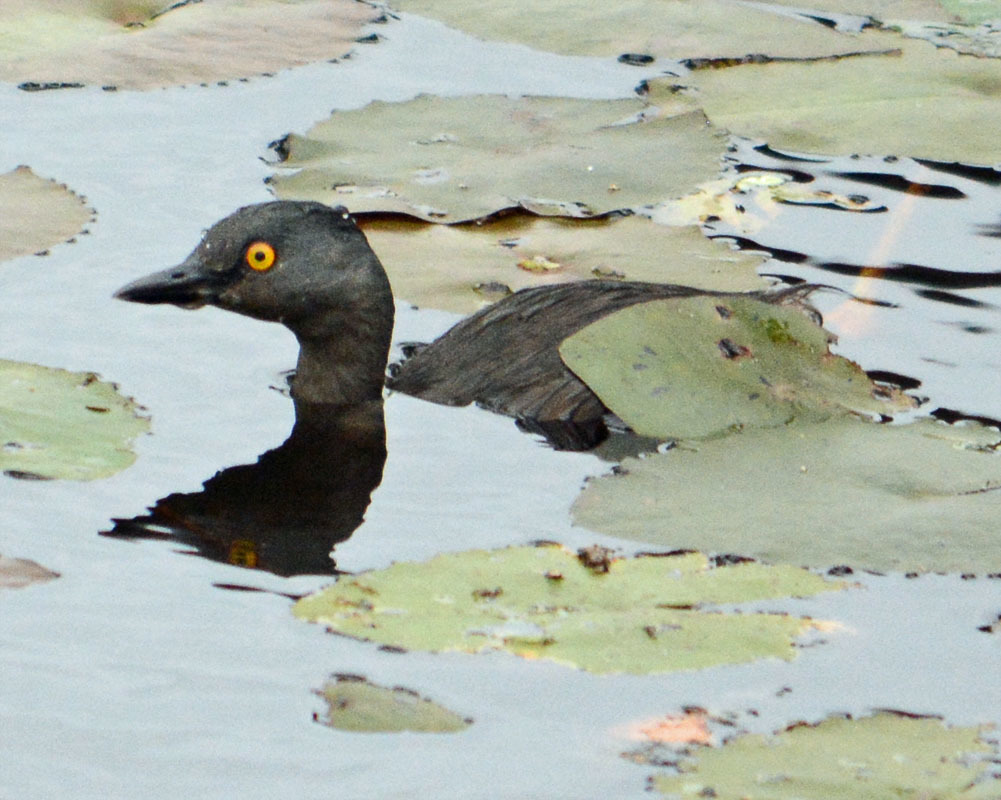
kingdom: Animalia
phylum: Chordata
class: Aves
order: Podicipediformes
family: Podicipedidae
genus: Tachybaptus
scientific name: Tachybaptus dominicus
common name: Least grebe
